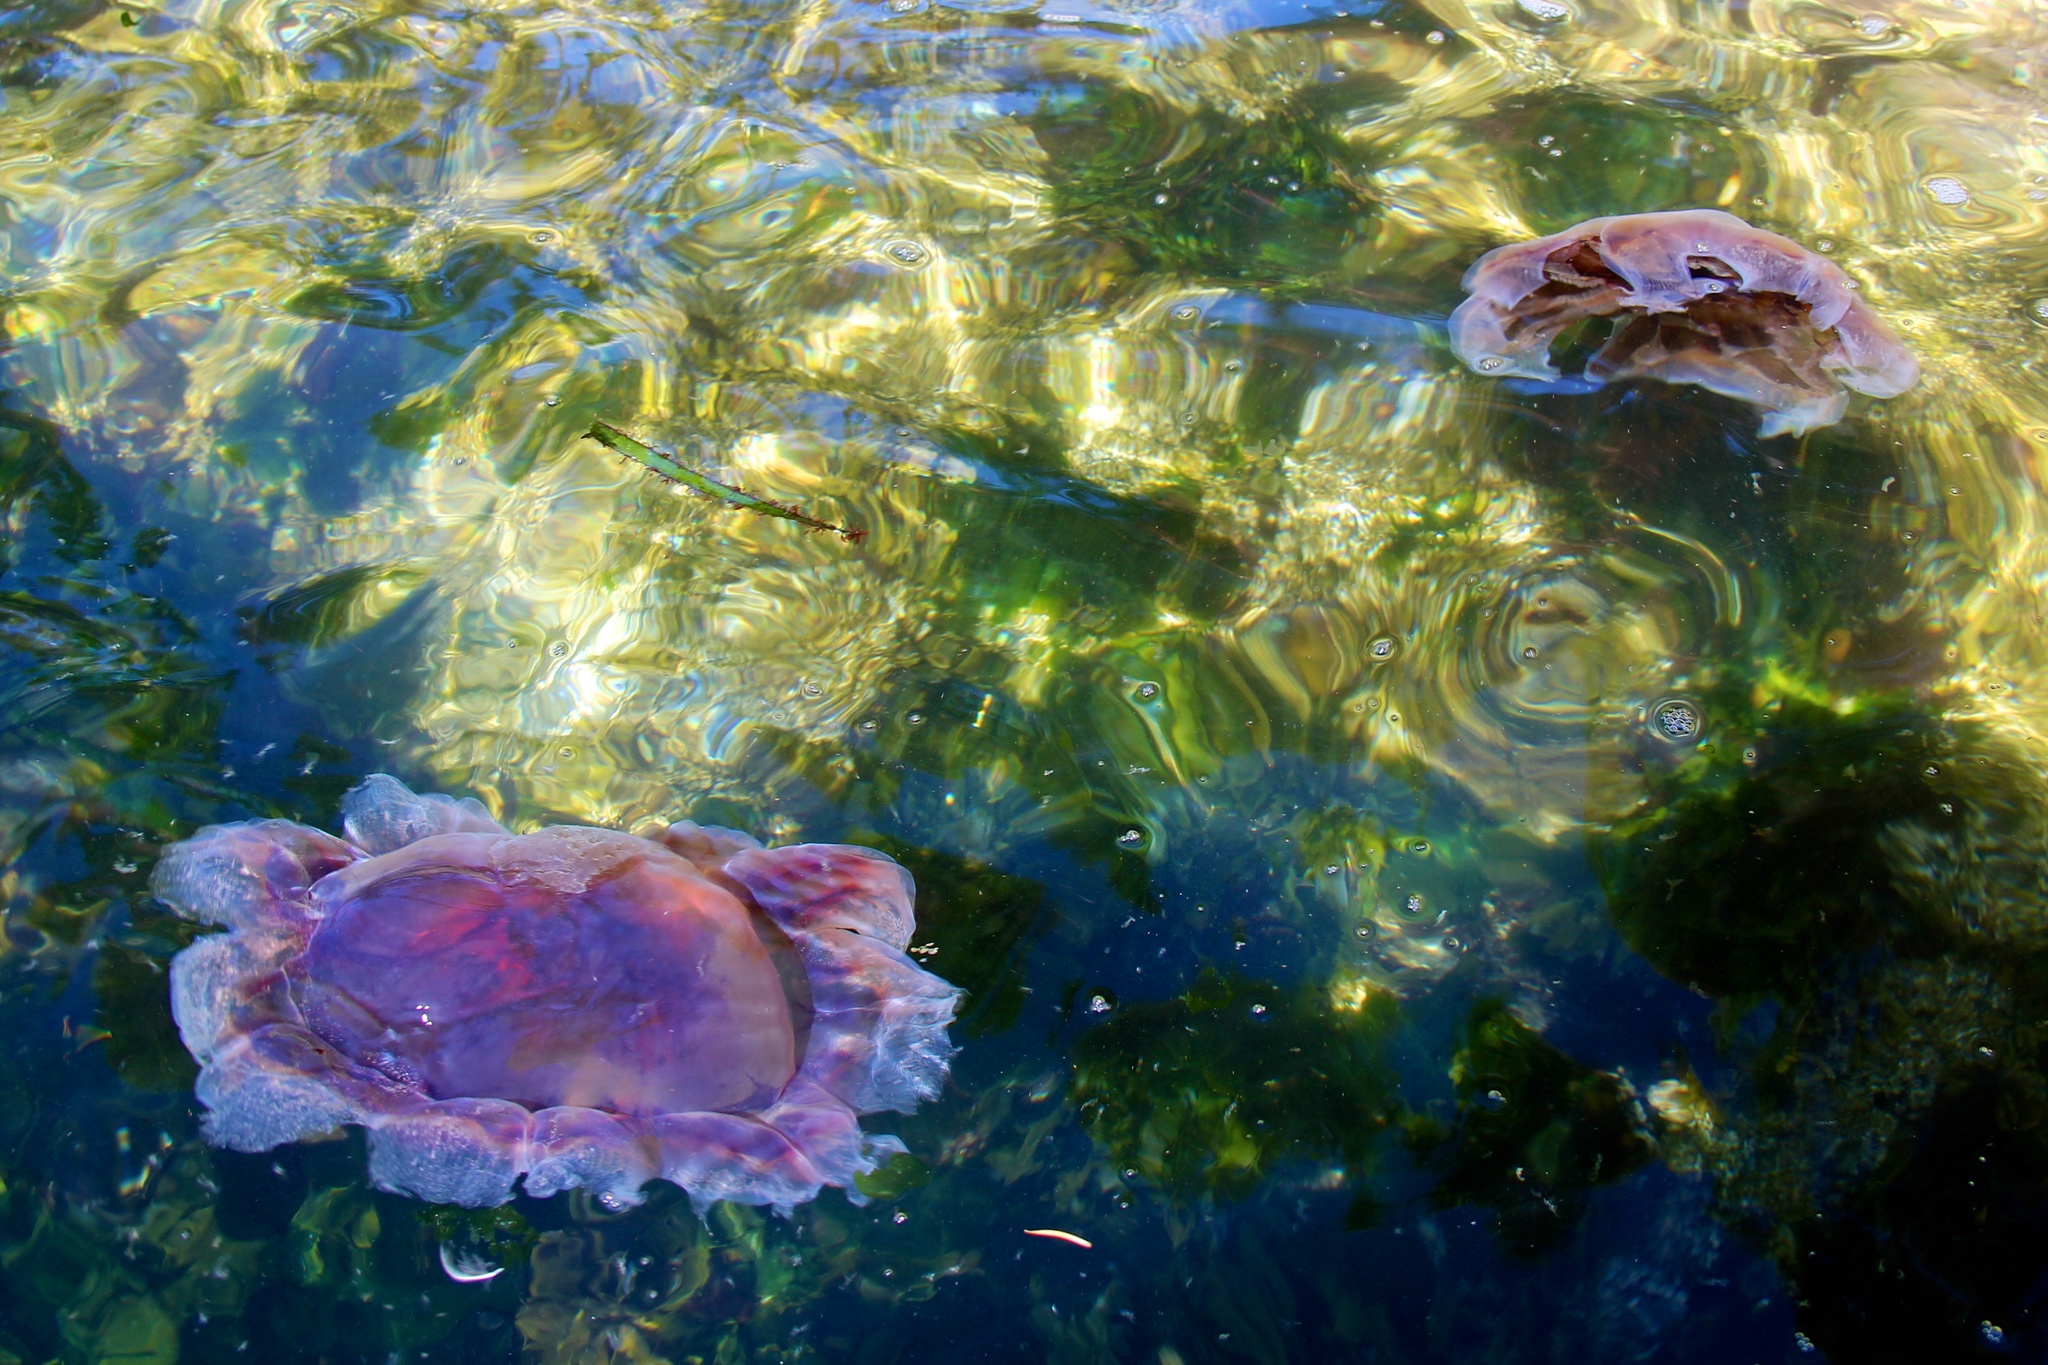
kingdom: Animalia
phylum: Cnidaria
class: Scyphozoa
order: Semaeostomeae
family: Cyaneidae
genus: Cyanea
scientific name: Cyanea ferruginea
